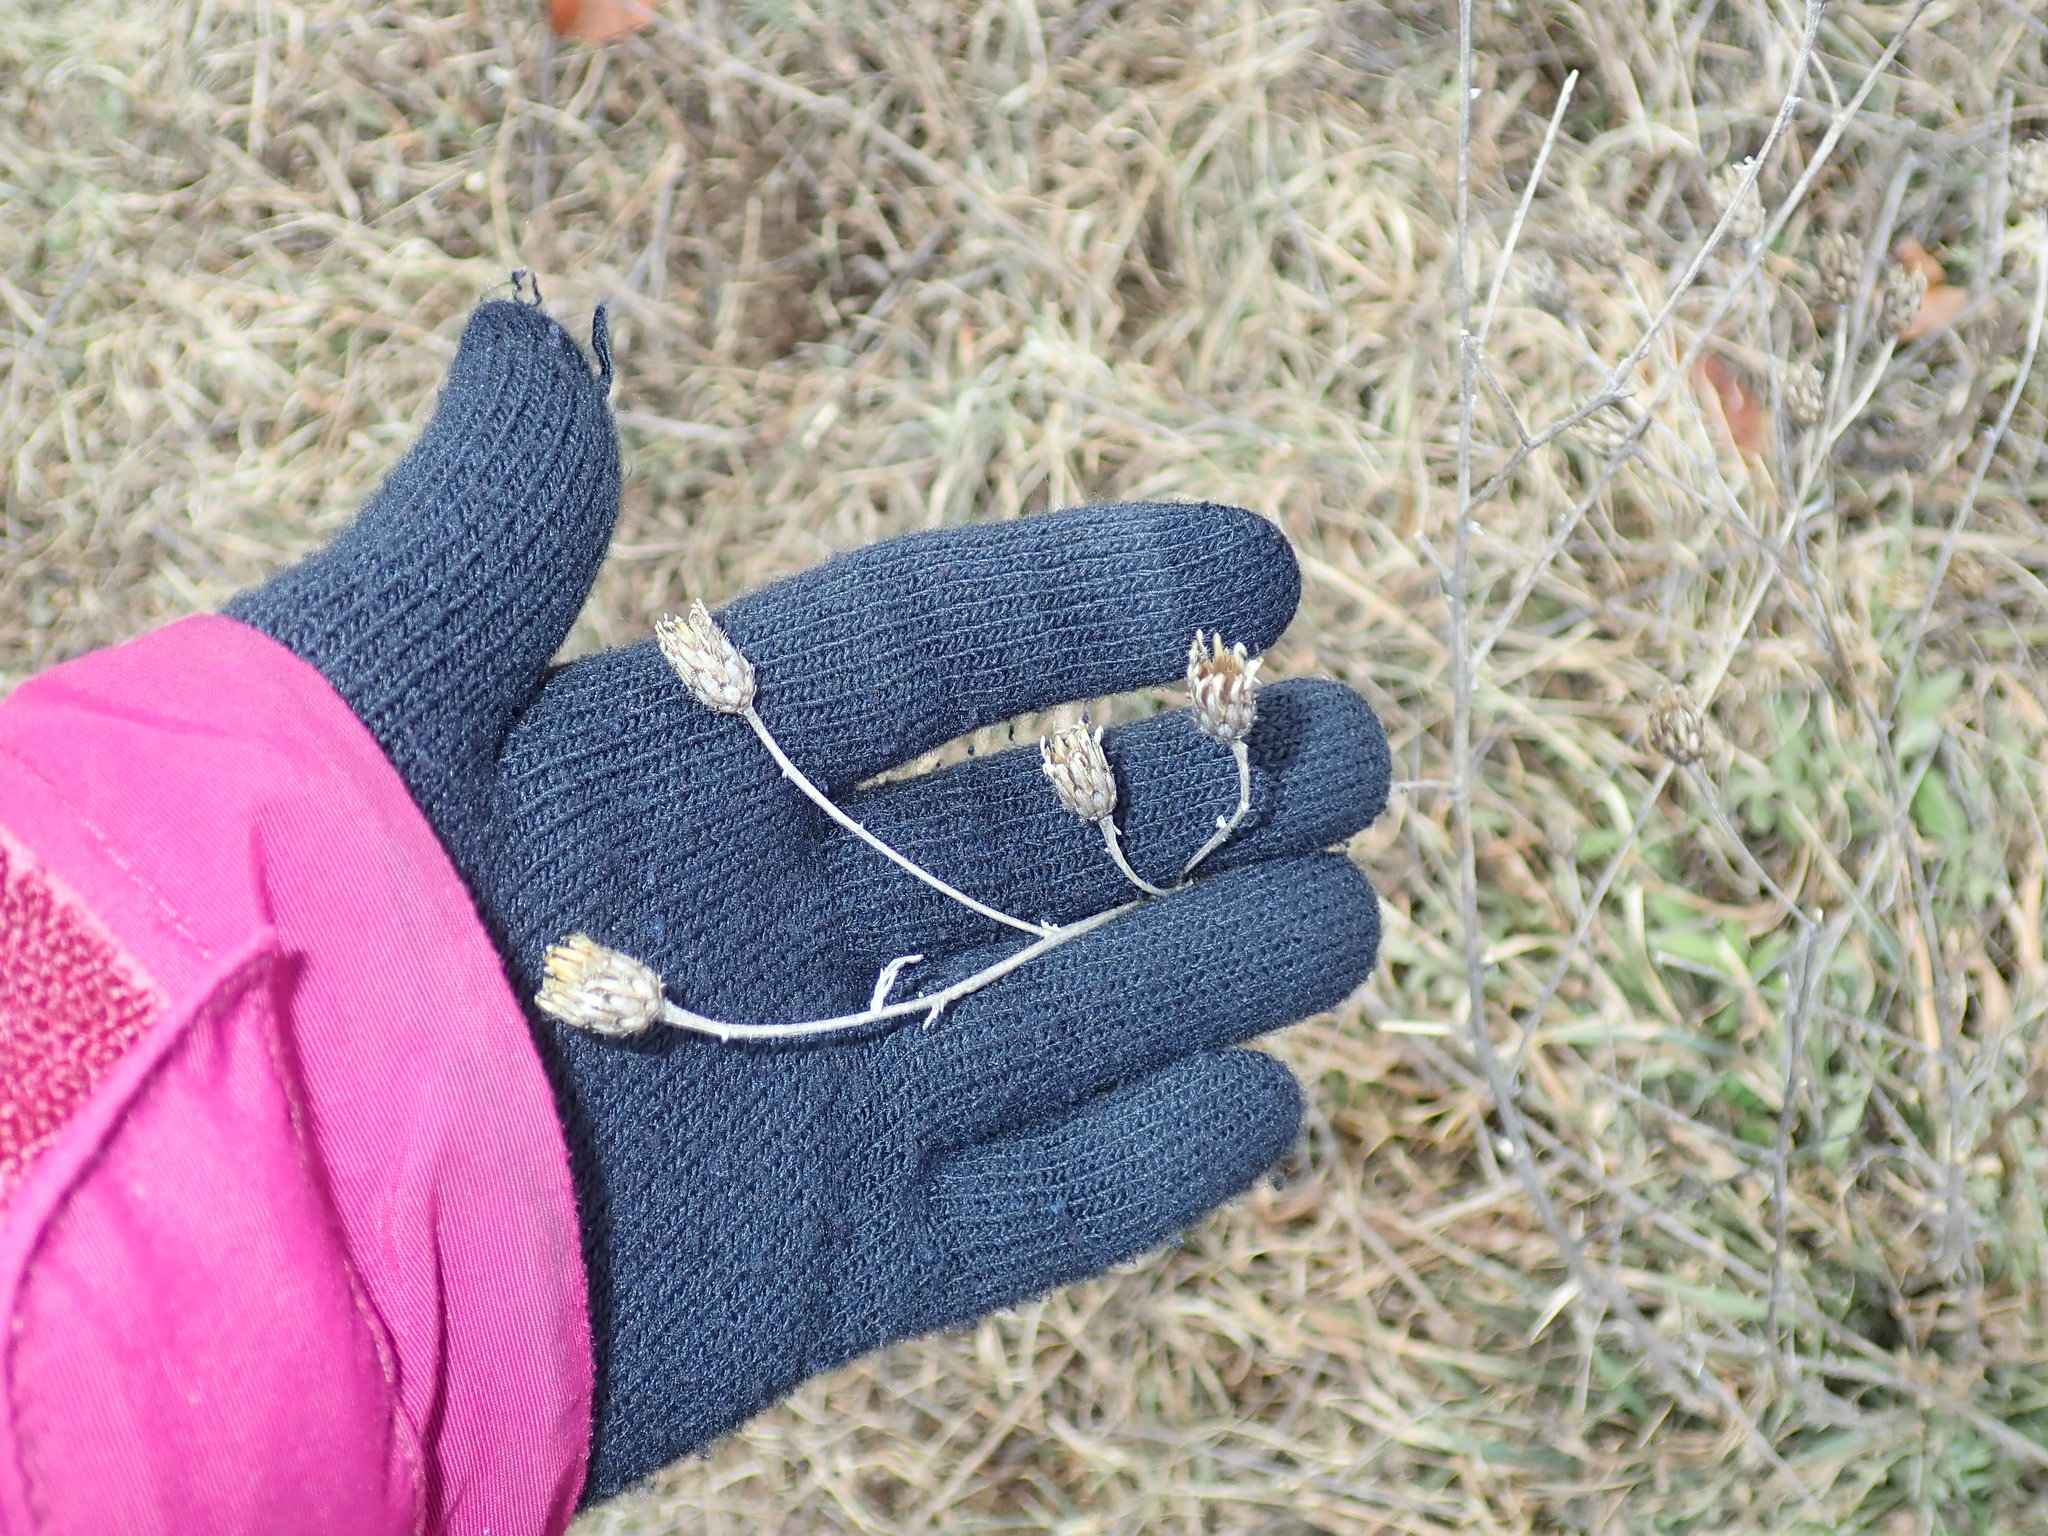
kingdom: Plantae
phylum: Tracheophyta
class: Magnoliopsida
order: Asterales
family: Asteraceae
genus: Centaurea
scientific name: Centaurea
